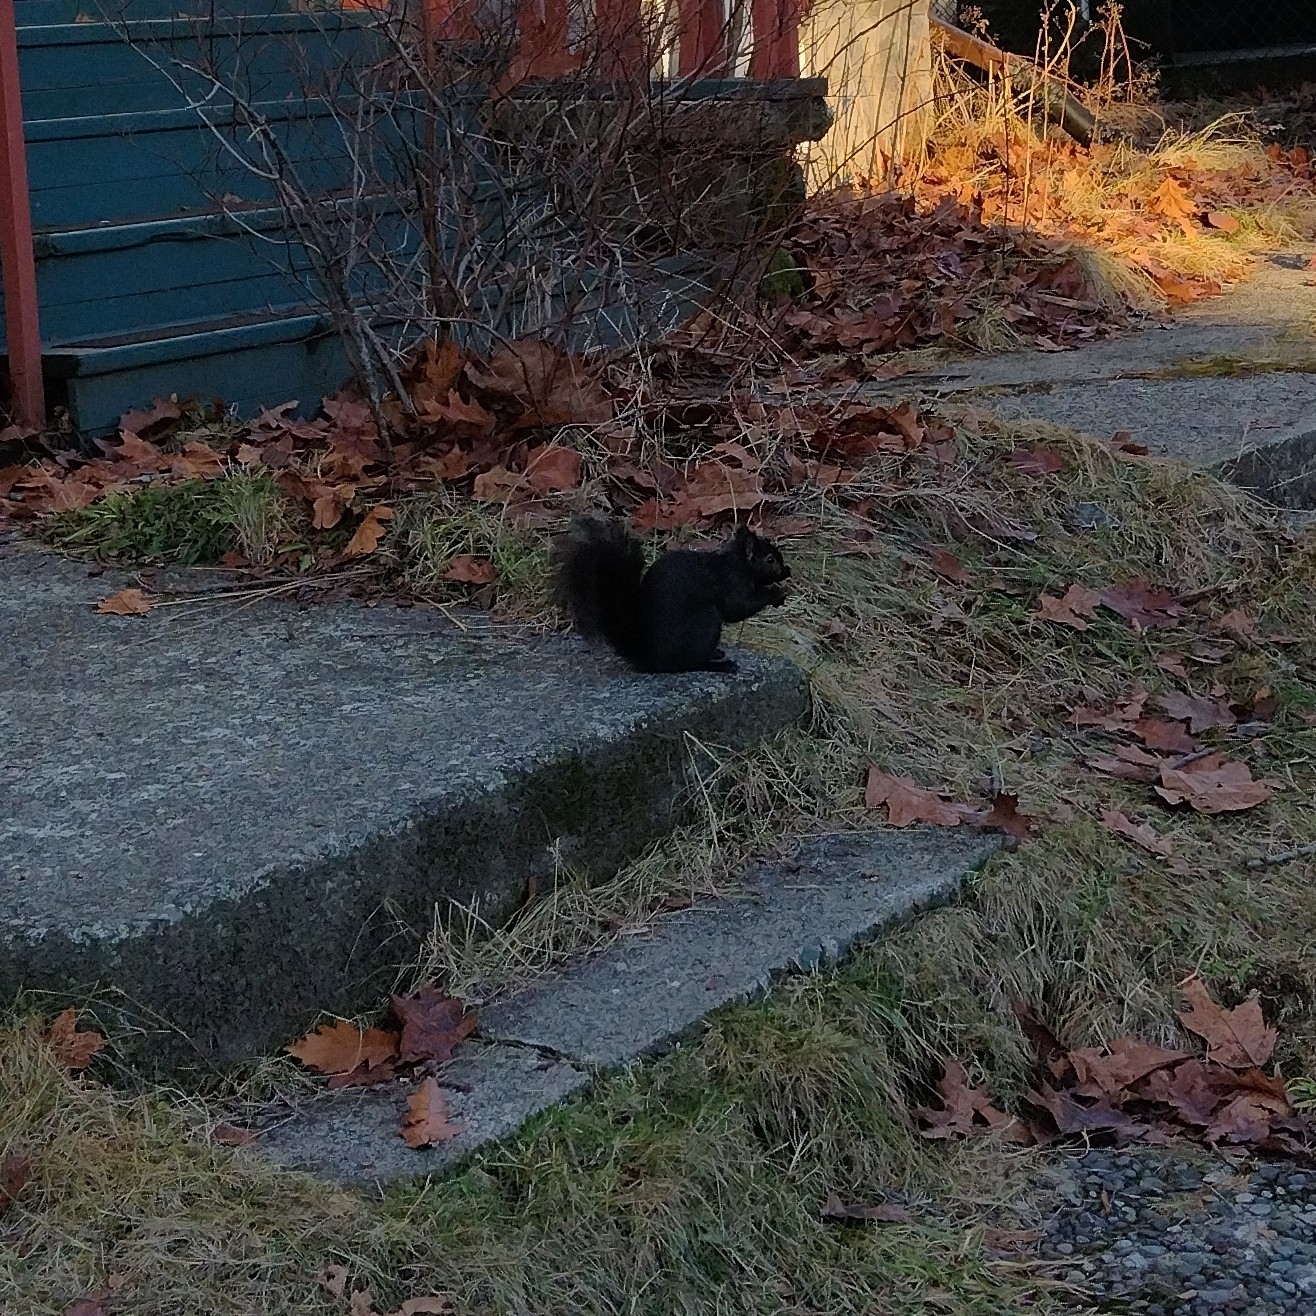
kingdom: Animalia
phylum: Chordata
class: Mammalia
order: Rodentia
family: Sciuridae
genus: Sciurus
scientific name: Sciurus carolinensis
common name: Eastern gray squirrel
